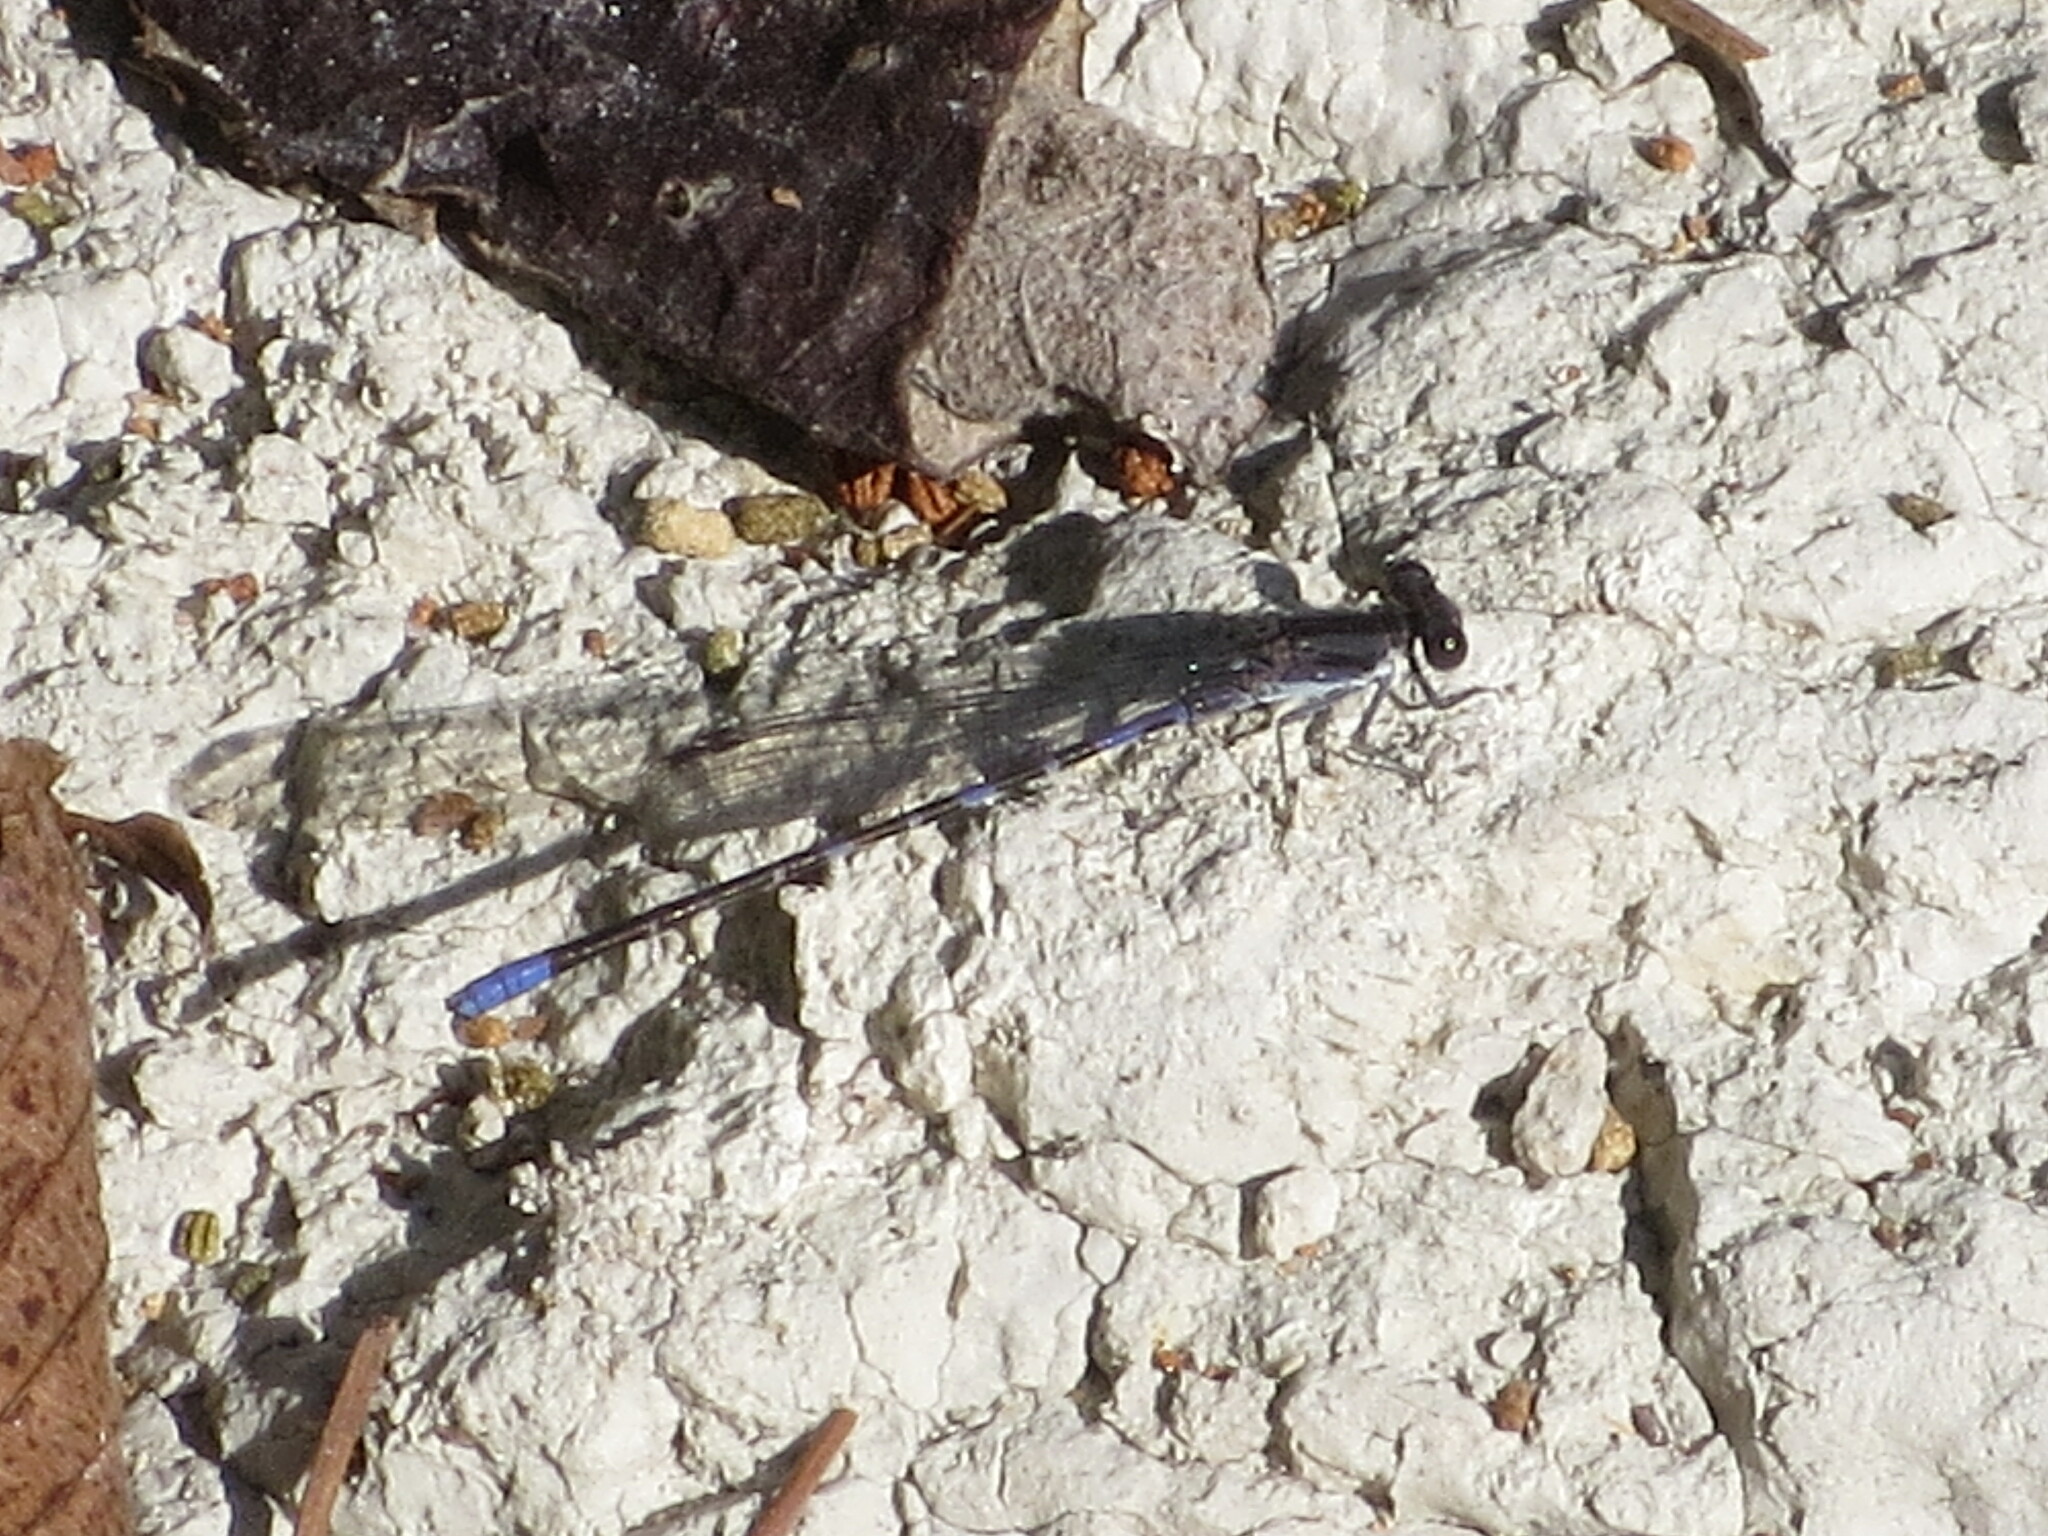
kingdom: Animalia
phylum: Arthropoda
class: Insecta
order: Odonata
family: Coenagrionidae
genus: Argia
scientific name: Argia immunda
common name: Kiowa dancer
